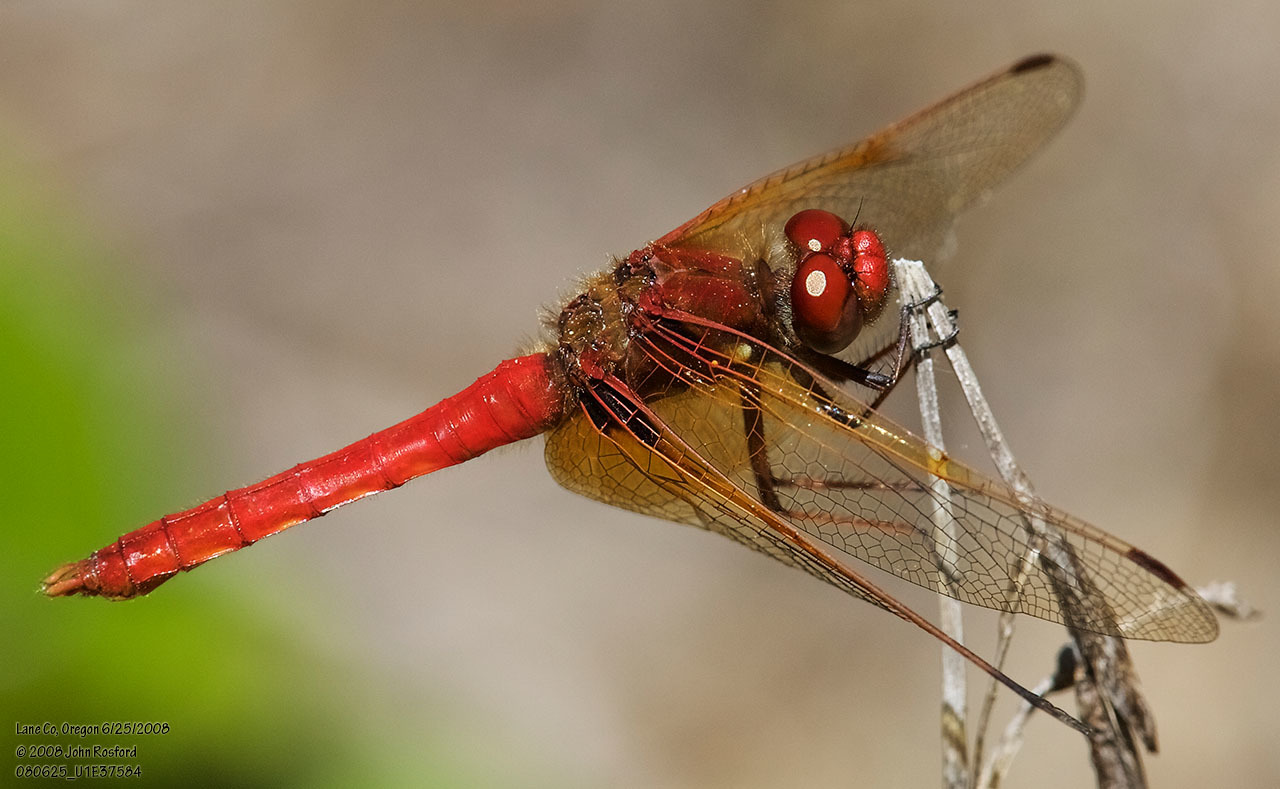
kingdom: Animalia
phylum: Arthropoda
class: Insecta
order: Odonata
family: Libellulidae
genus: Sympetrum
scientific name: Sympetrum illotum
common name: Cardinal meadowhawk
